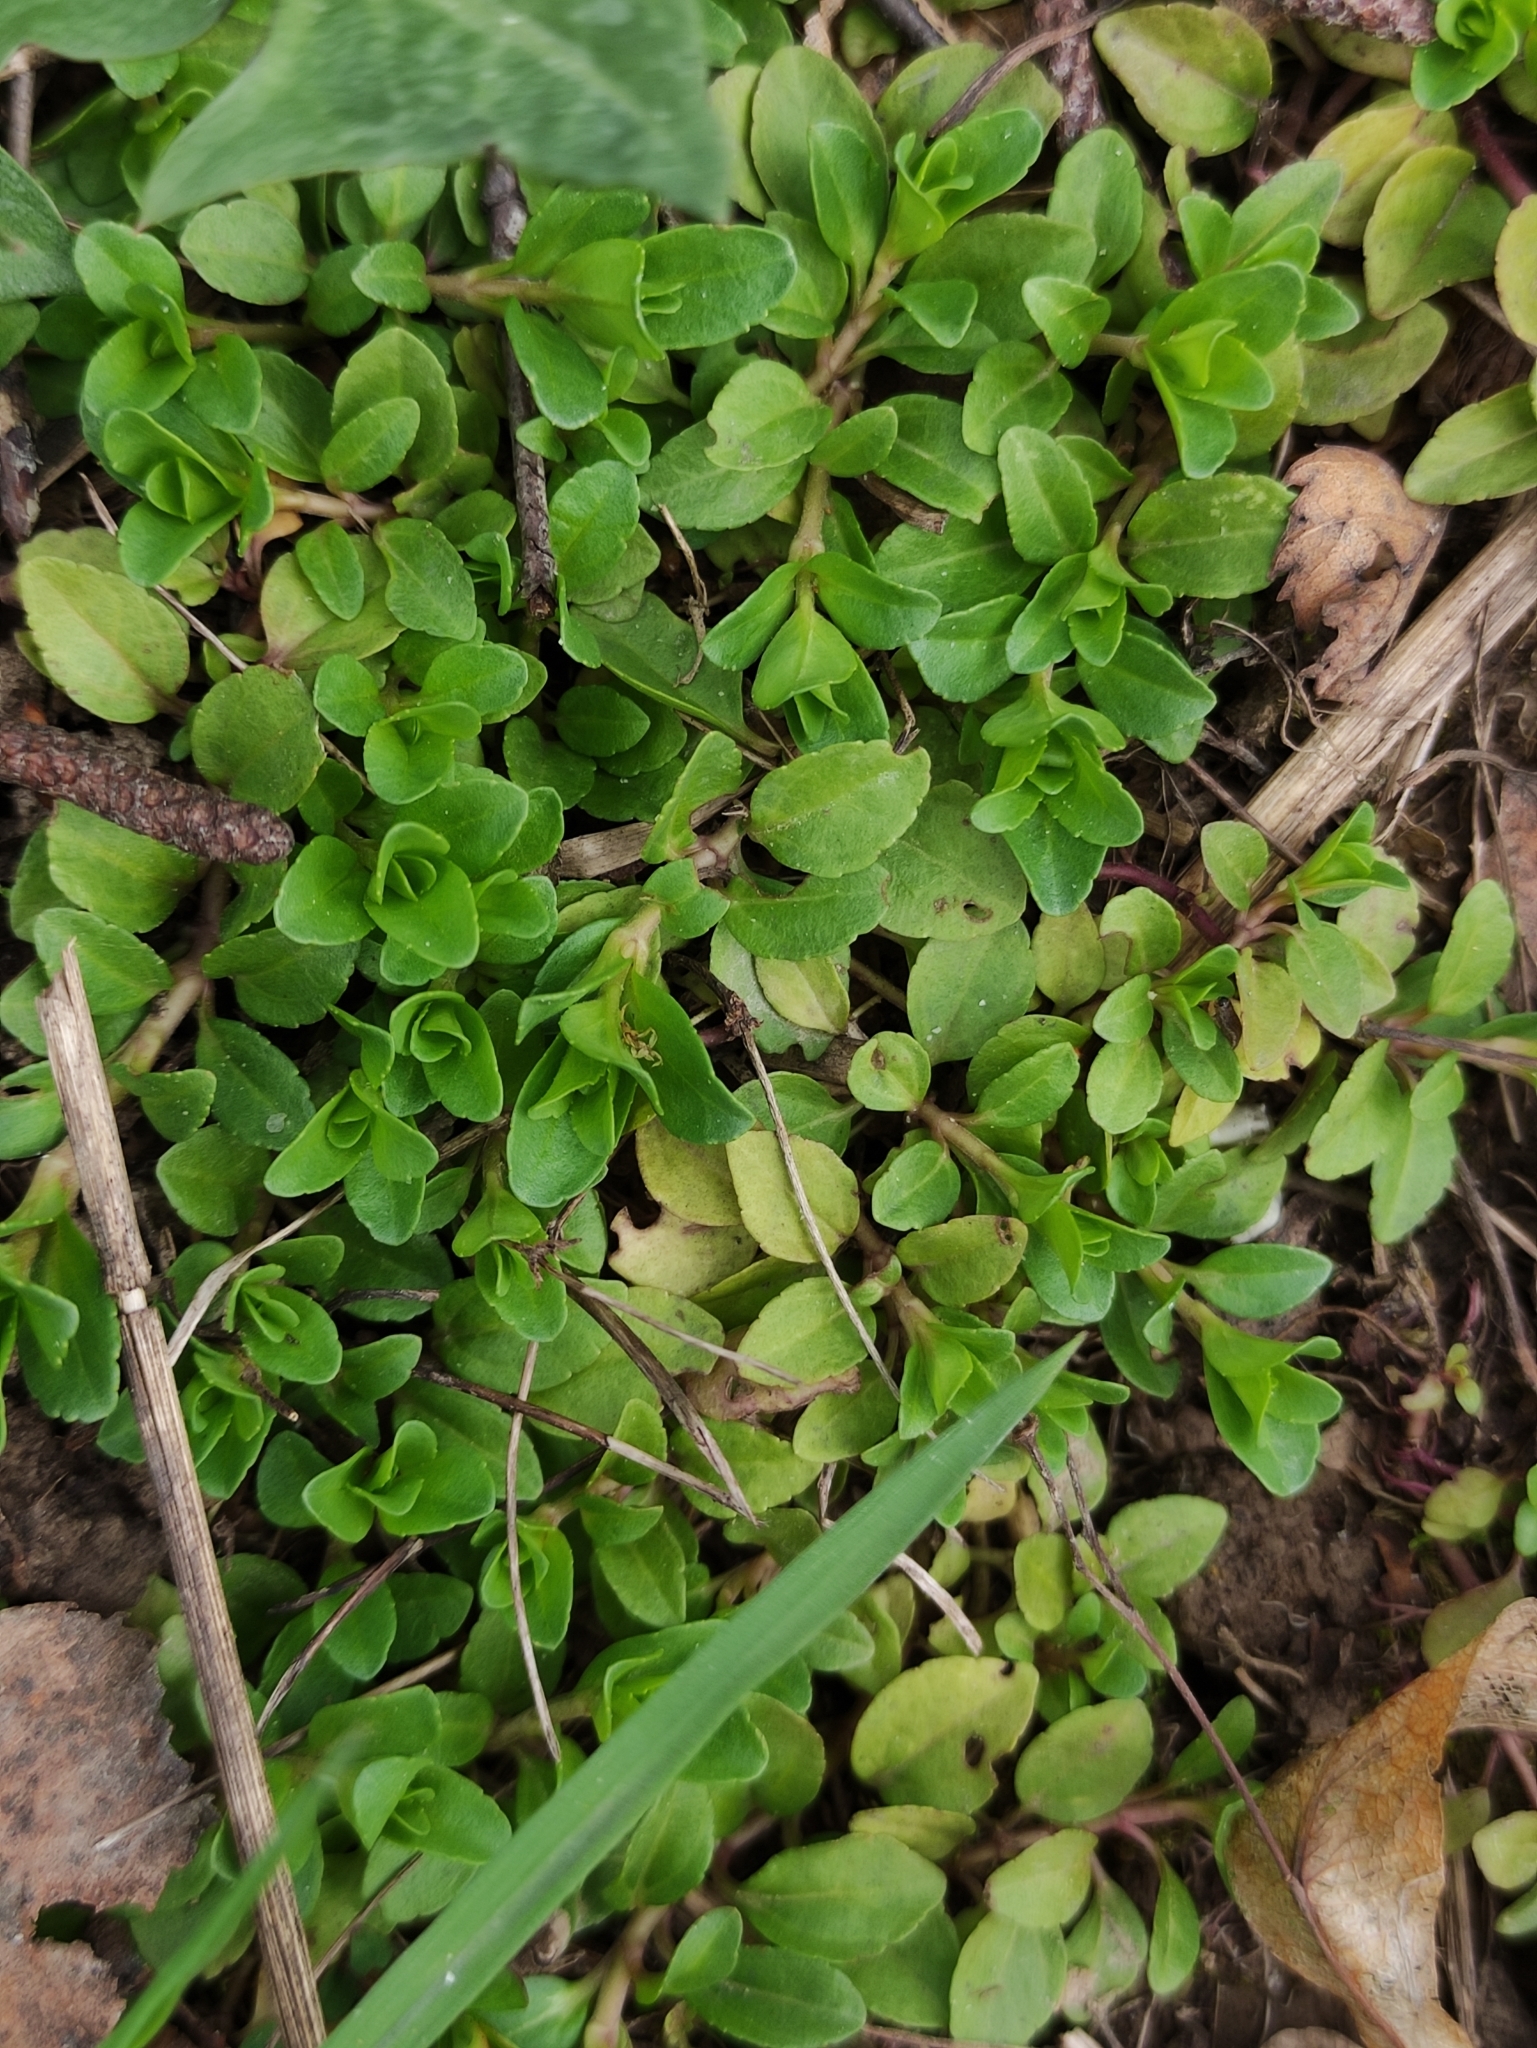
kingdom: Plantae
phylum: Tracheophyta
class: Magnoliopsida
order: Lamiales
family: Plantaginaceae
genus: Veronica
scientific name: Veronica serpyllifolia
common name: Thyme-leaved speedwell
